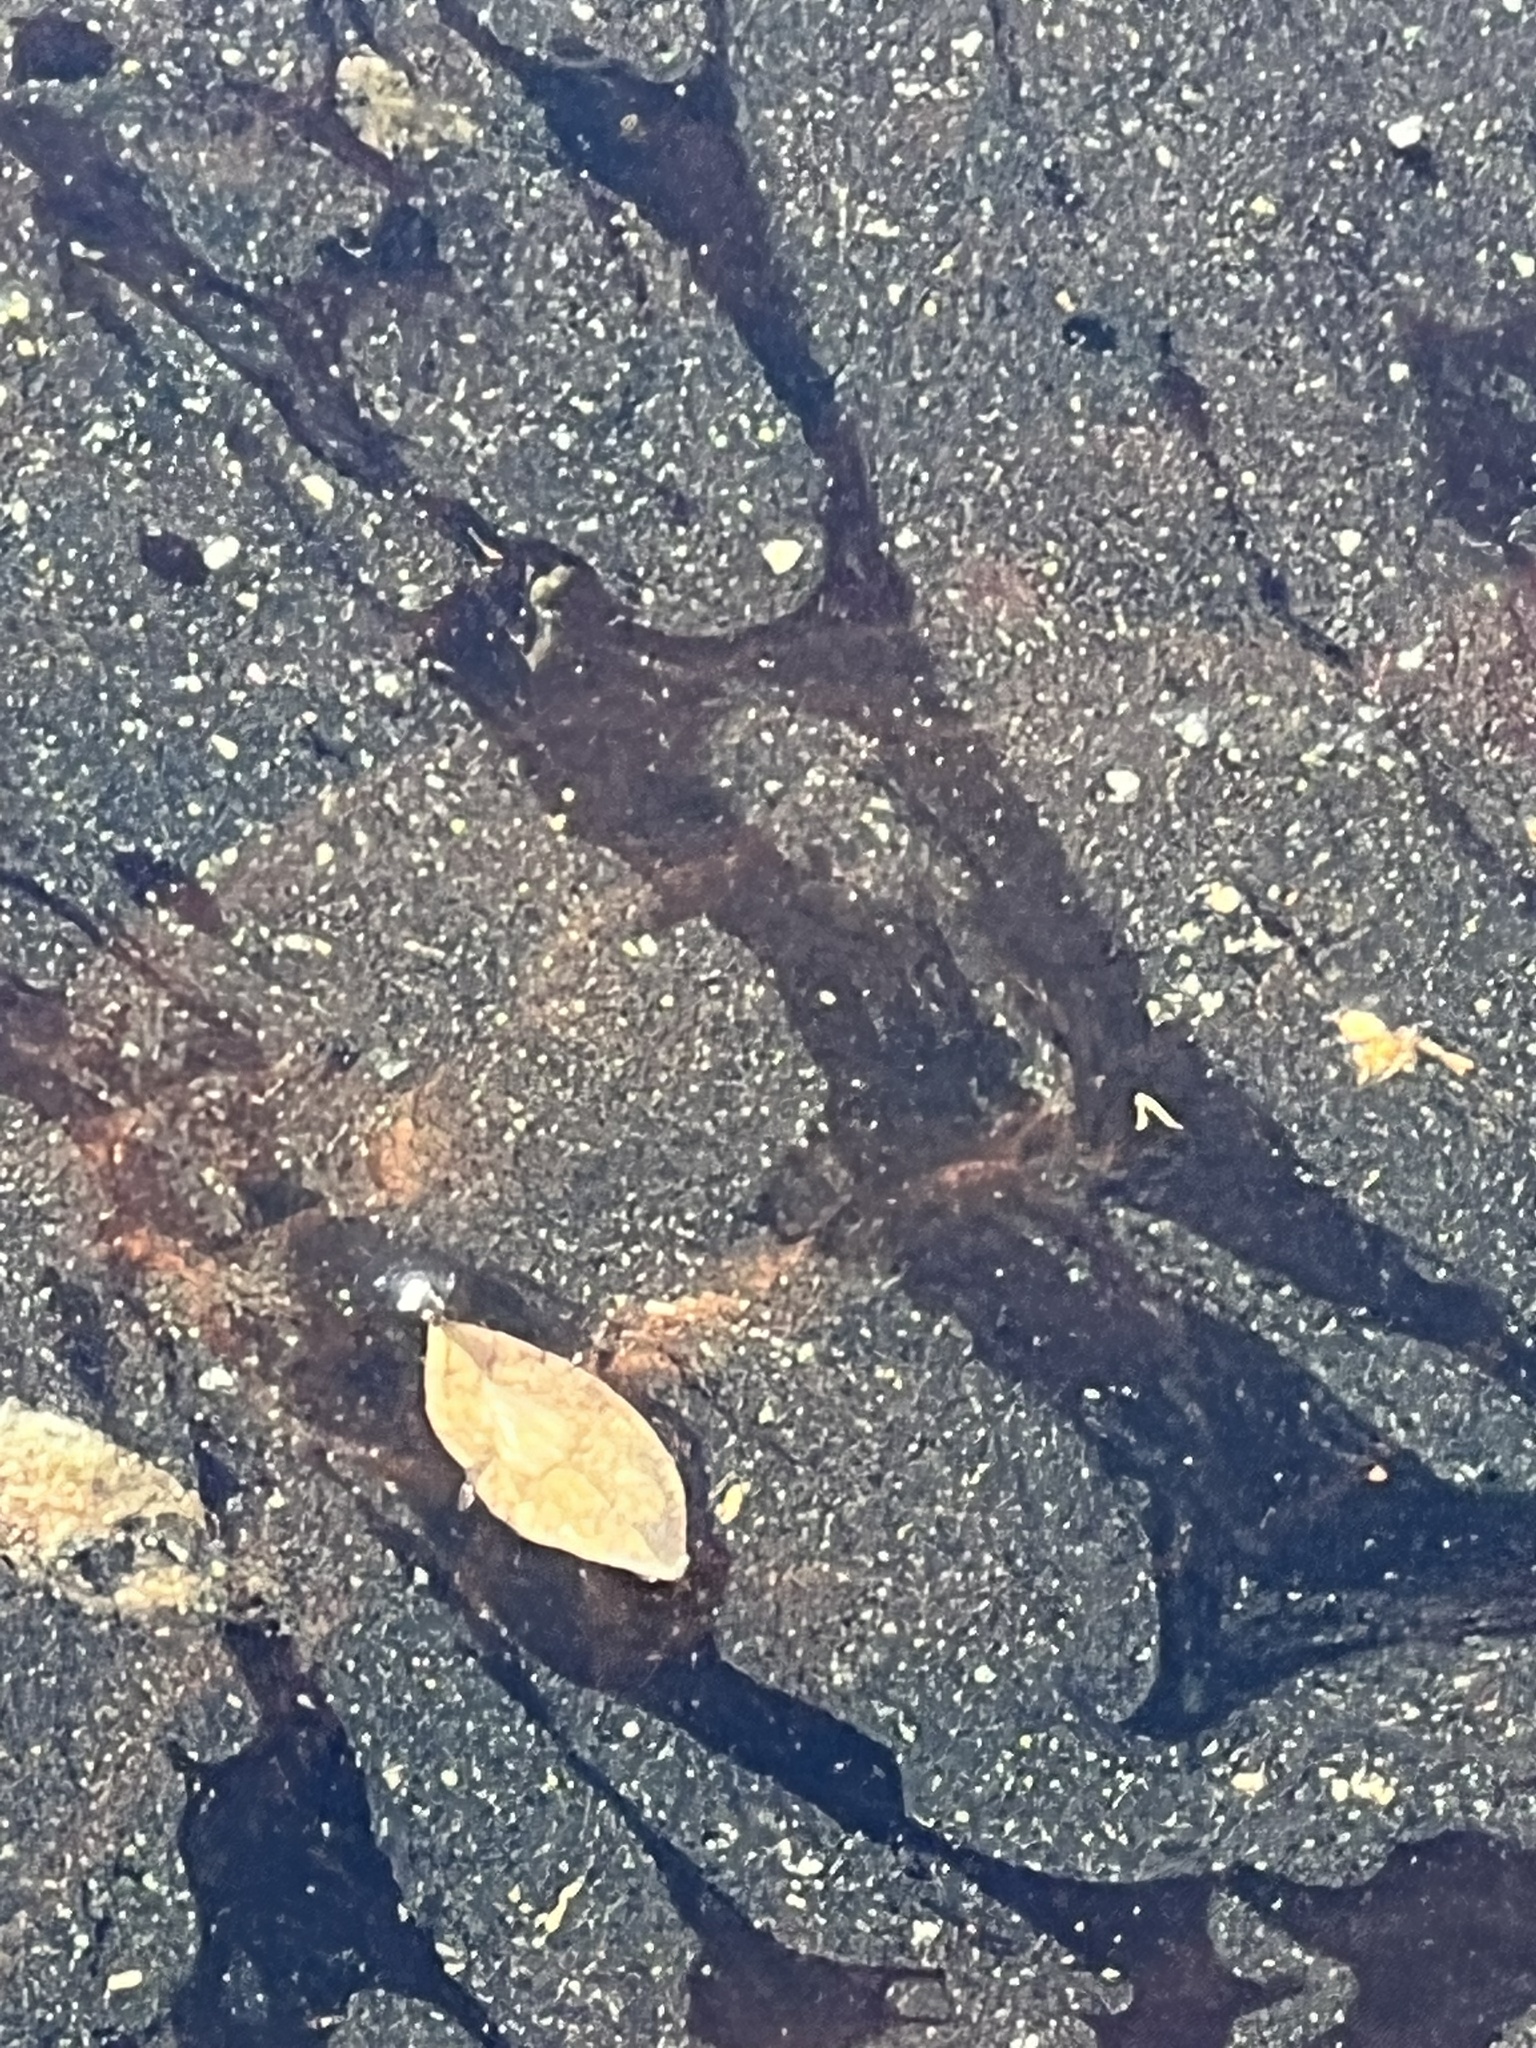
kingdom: Animalia
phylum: Chordata
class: Testudines
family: Chelydridae
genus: Chelydra
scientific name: Chelydra serpentina
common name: Common snapping turtle
